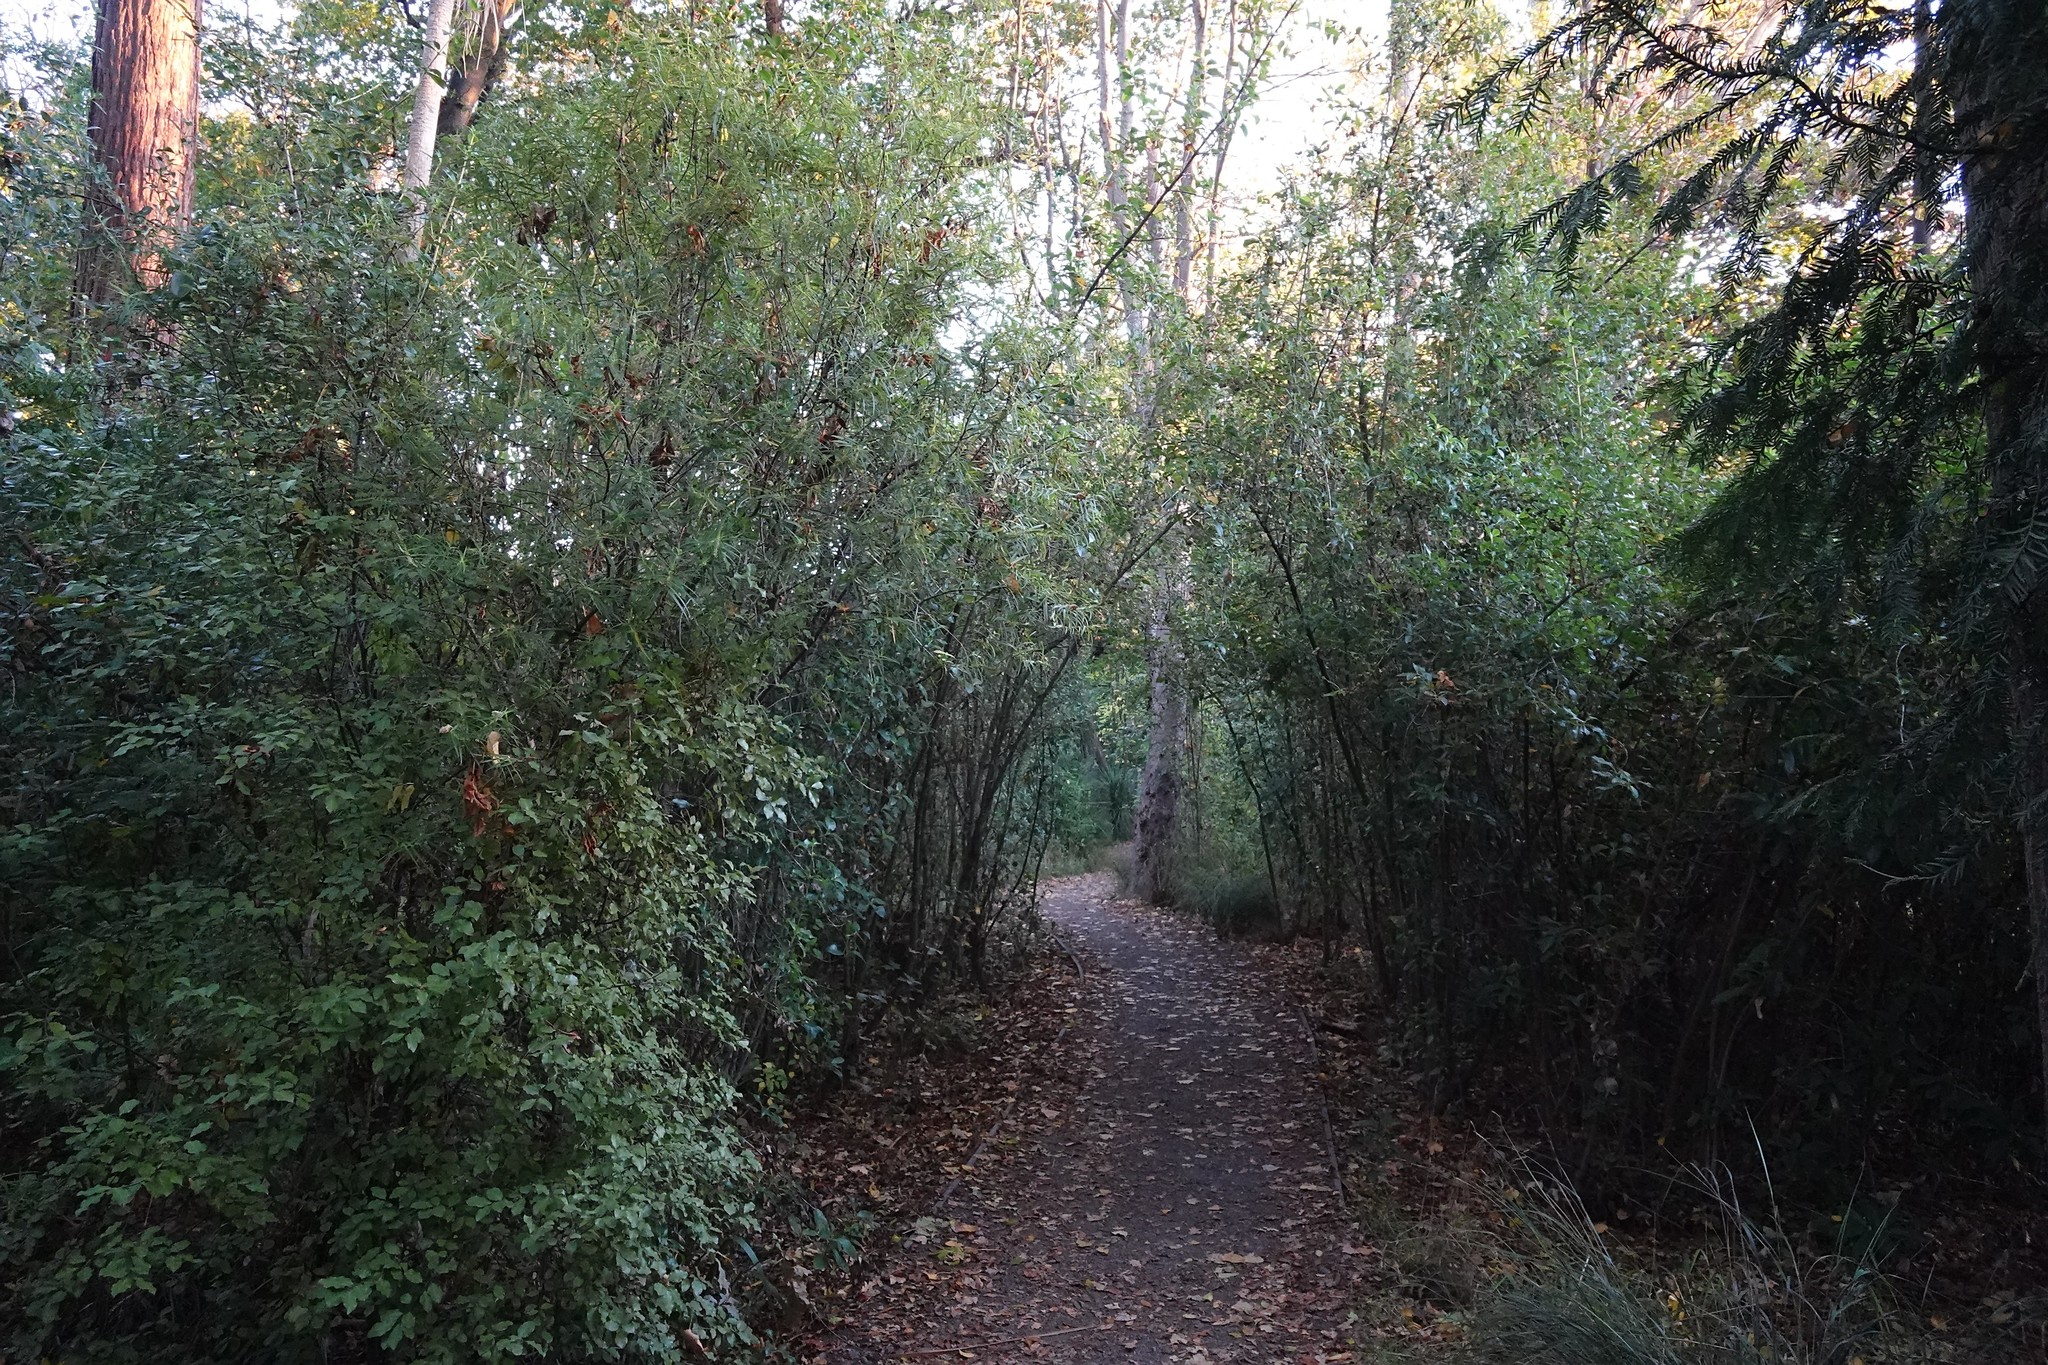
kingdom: Plantae
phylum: Tracheophyta
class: Magnoliopsida
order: Apiales
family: Pittosporaceae
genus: Pittosporum
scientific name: Pittosporum tenuifolium
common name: Kohuhu
